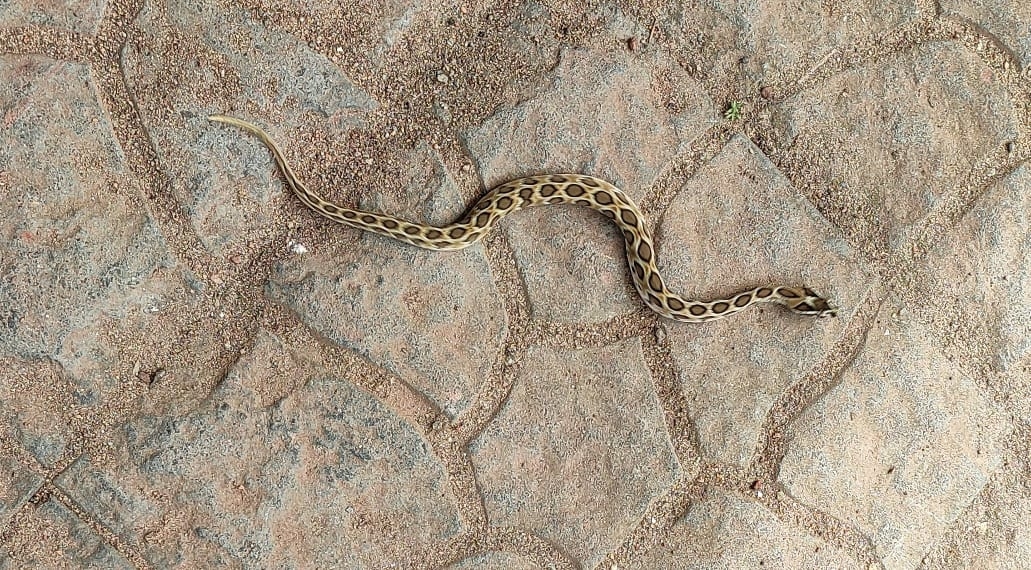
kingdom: Animalia
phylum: Chordata
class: Squamata
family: Viperidae
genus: Daboia
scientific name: Daboia russelii
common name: Western russel’s viper
